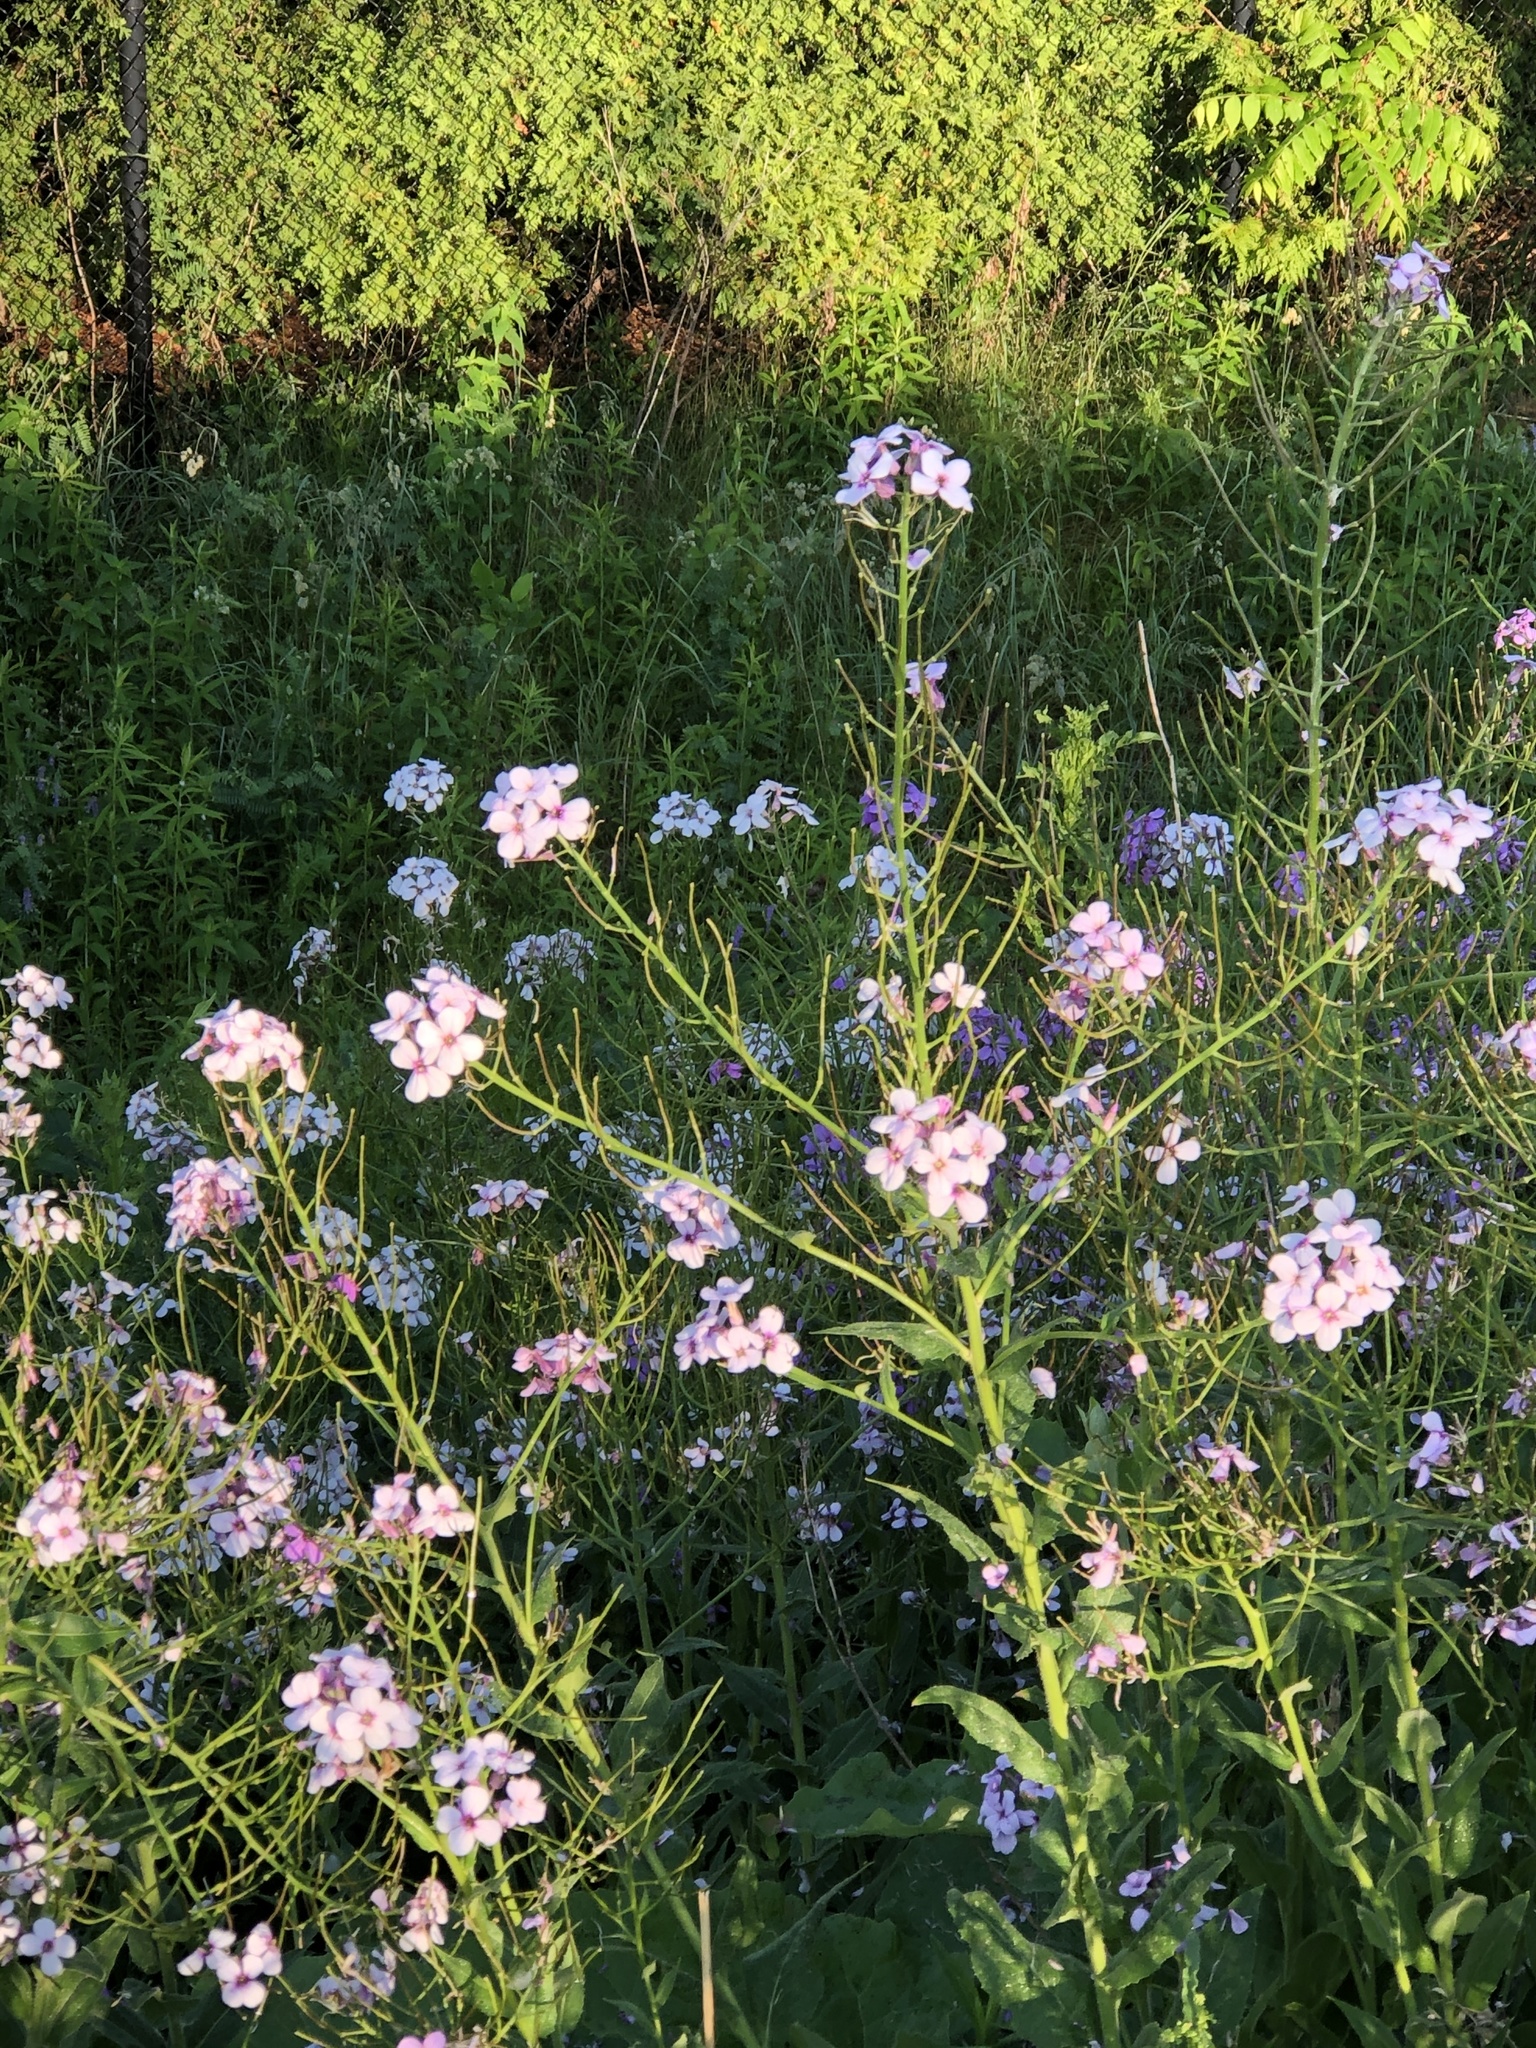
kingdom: Plantae
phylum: Tracheophyta
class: Magnoliopsida
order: Brassicales
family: Brassicaceae
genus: Hesperis
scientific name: Hesperis matronalis
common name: Dame's-violet
